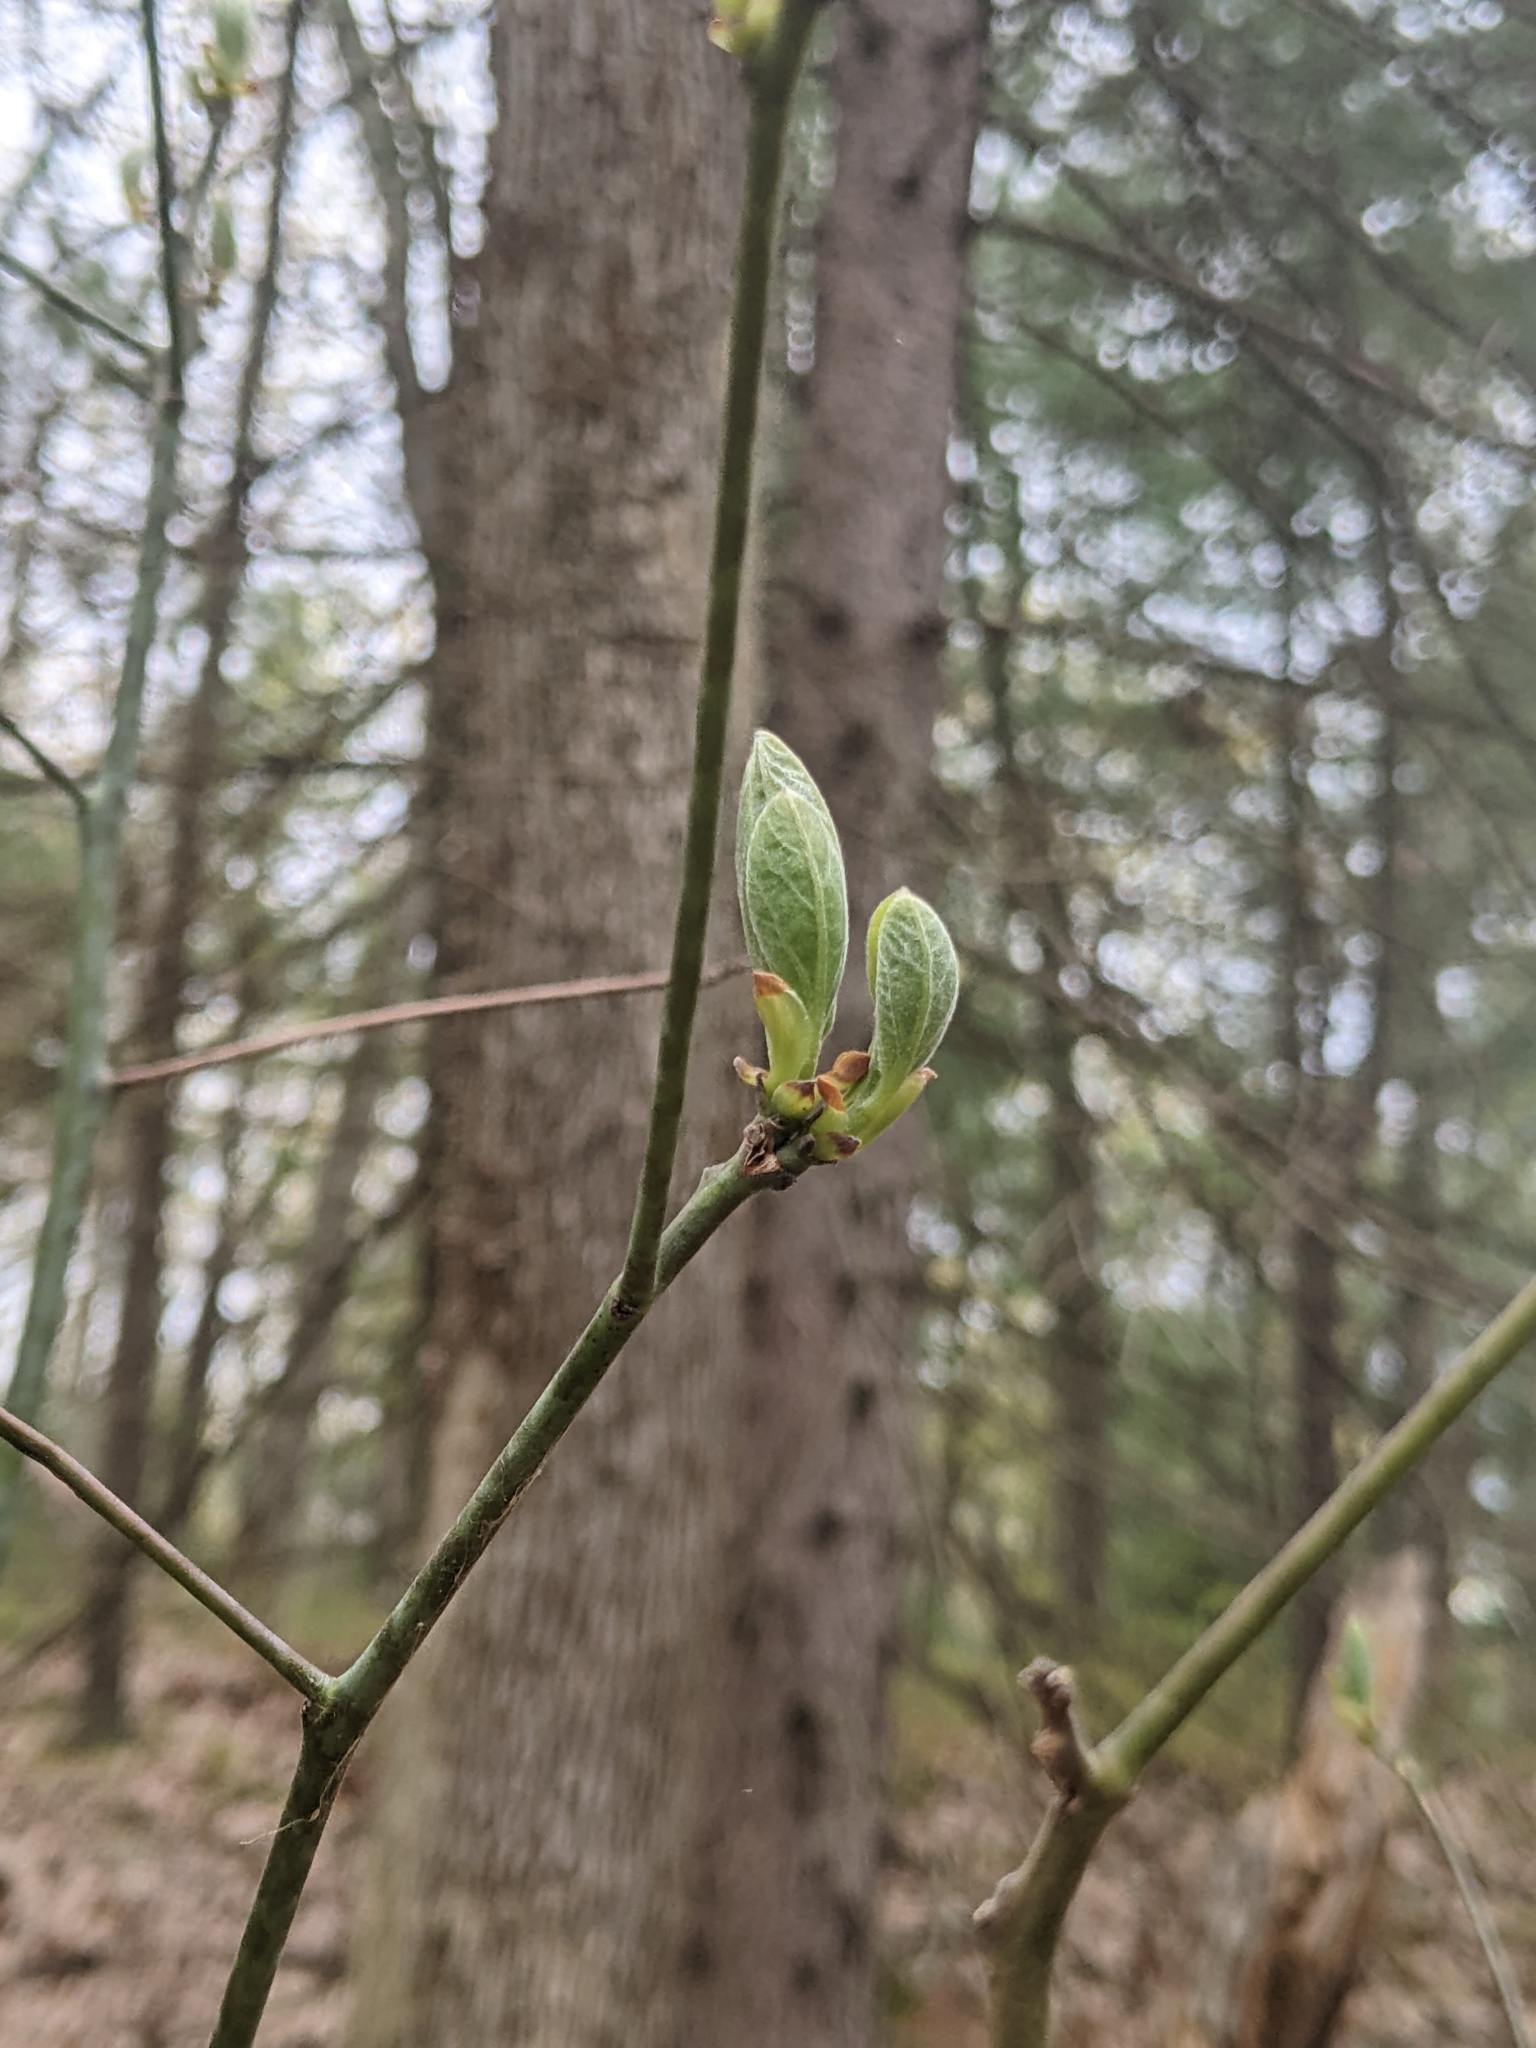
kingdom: Plantae
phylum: Tracheophyta
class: Magnoliopsida
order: Laurales
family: Lauraceae
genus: Sassafras
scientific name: Sassafras albidum
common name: Sassafras
